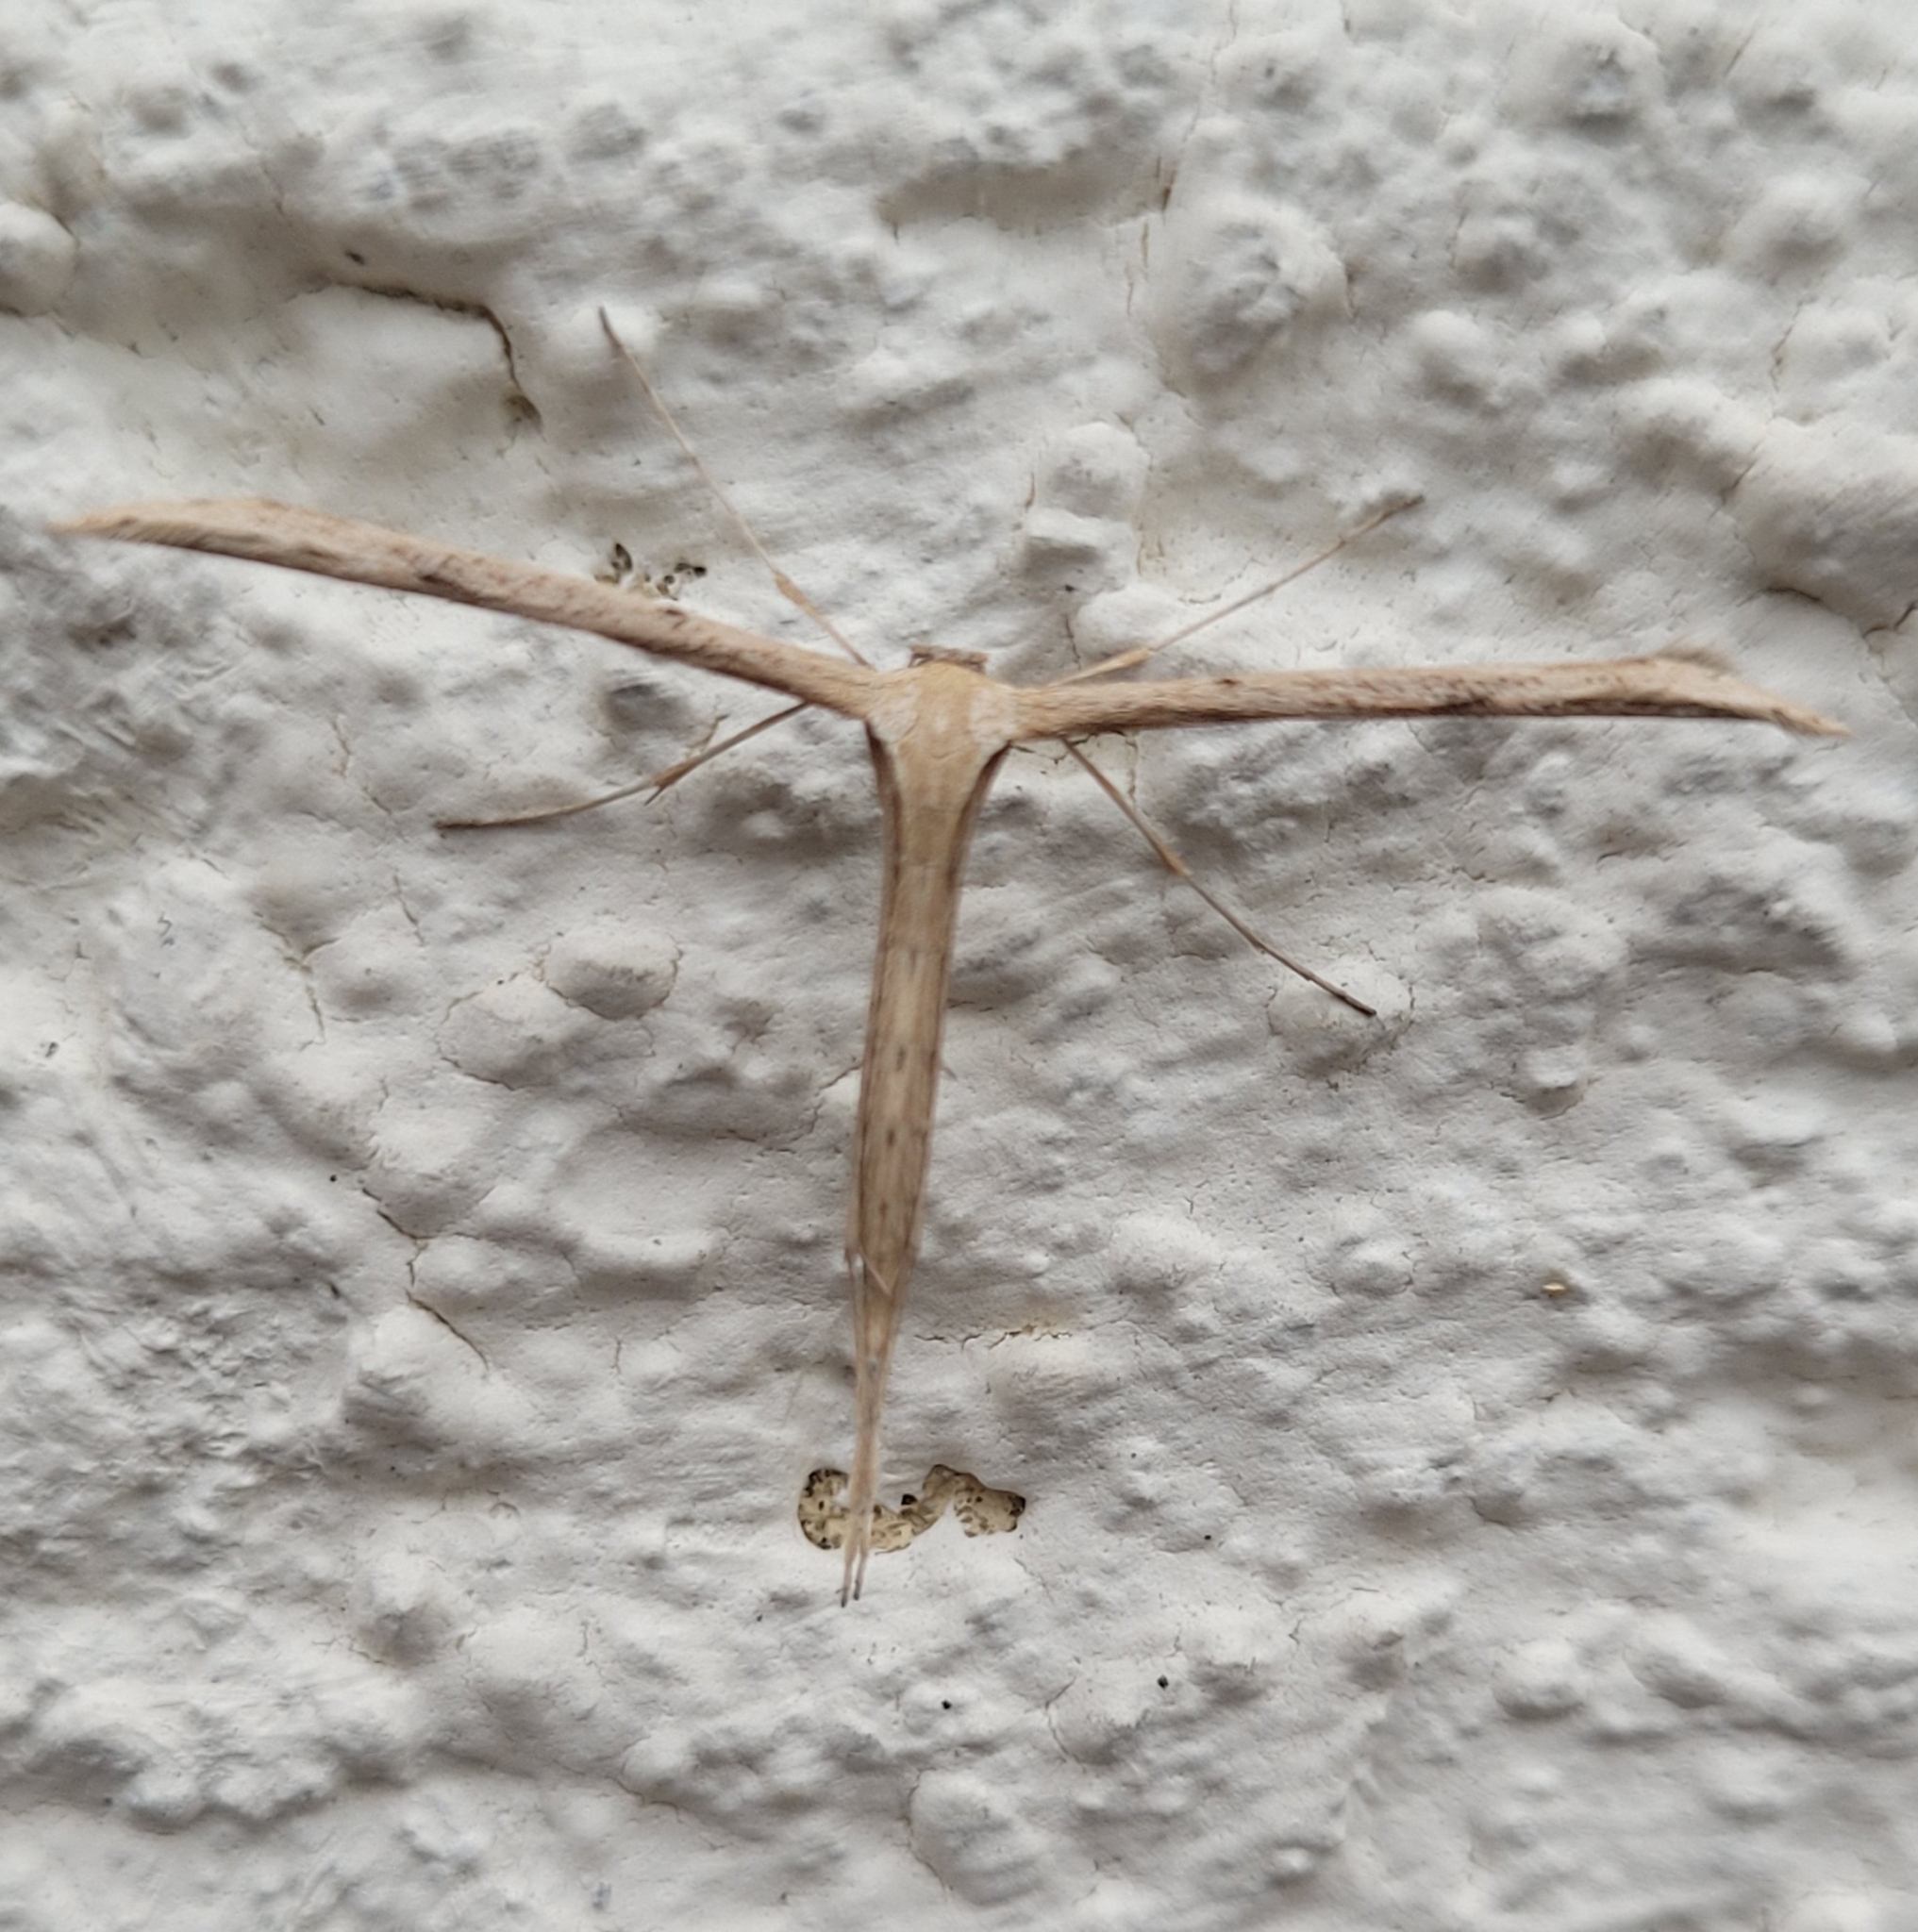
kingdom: Animalia
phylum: Arthropoda
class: Insecta
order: Lepidoptera
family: Pterophoridae
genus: Emmelina
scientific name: Emmelina monodactyla
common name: Common plume
